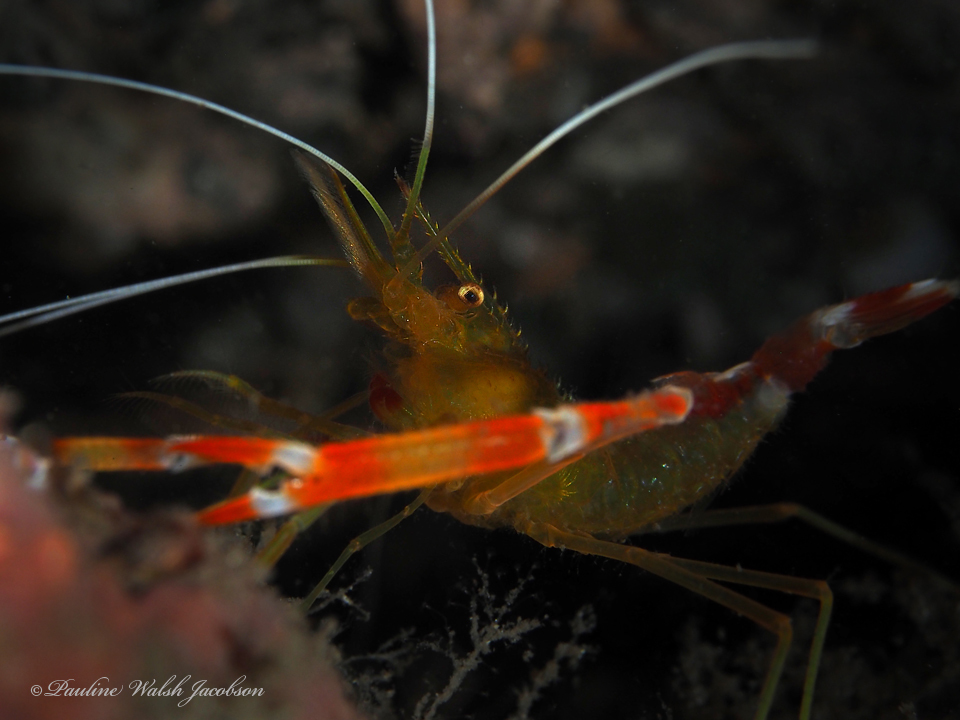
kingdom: Animalia
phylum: Arthropoda
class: Malacostraca
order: Decapoda
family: Stenopodidae
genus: Stenopus
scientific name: Stenopus scutellatus
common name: Golden coral shrimp
